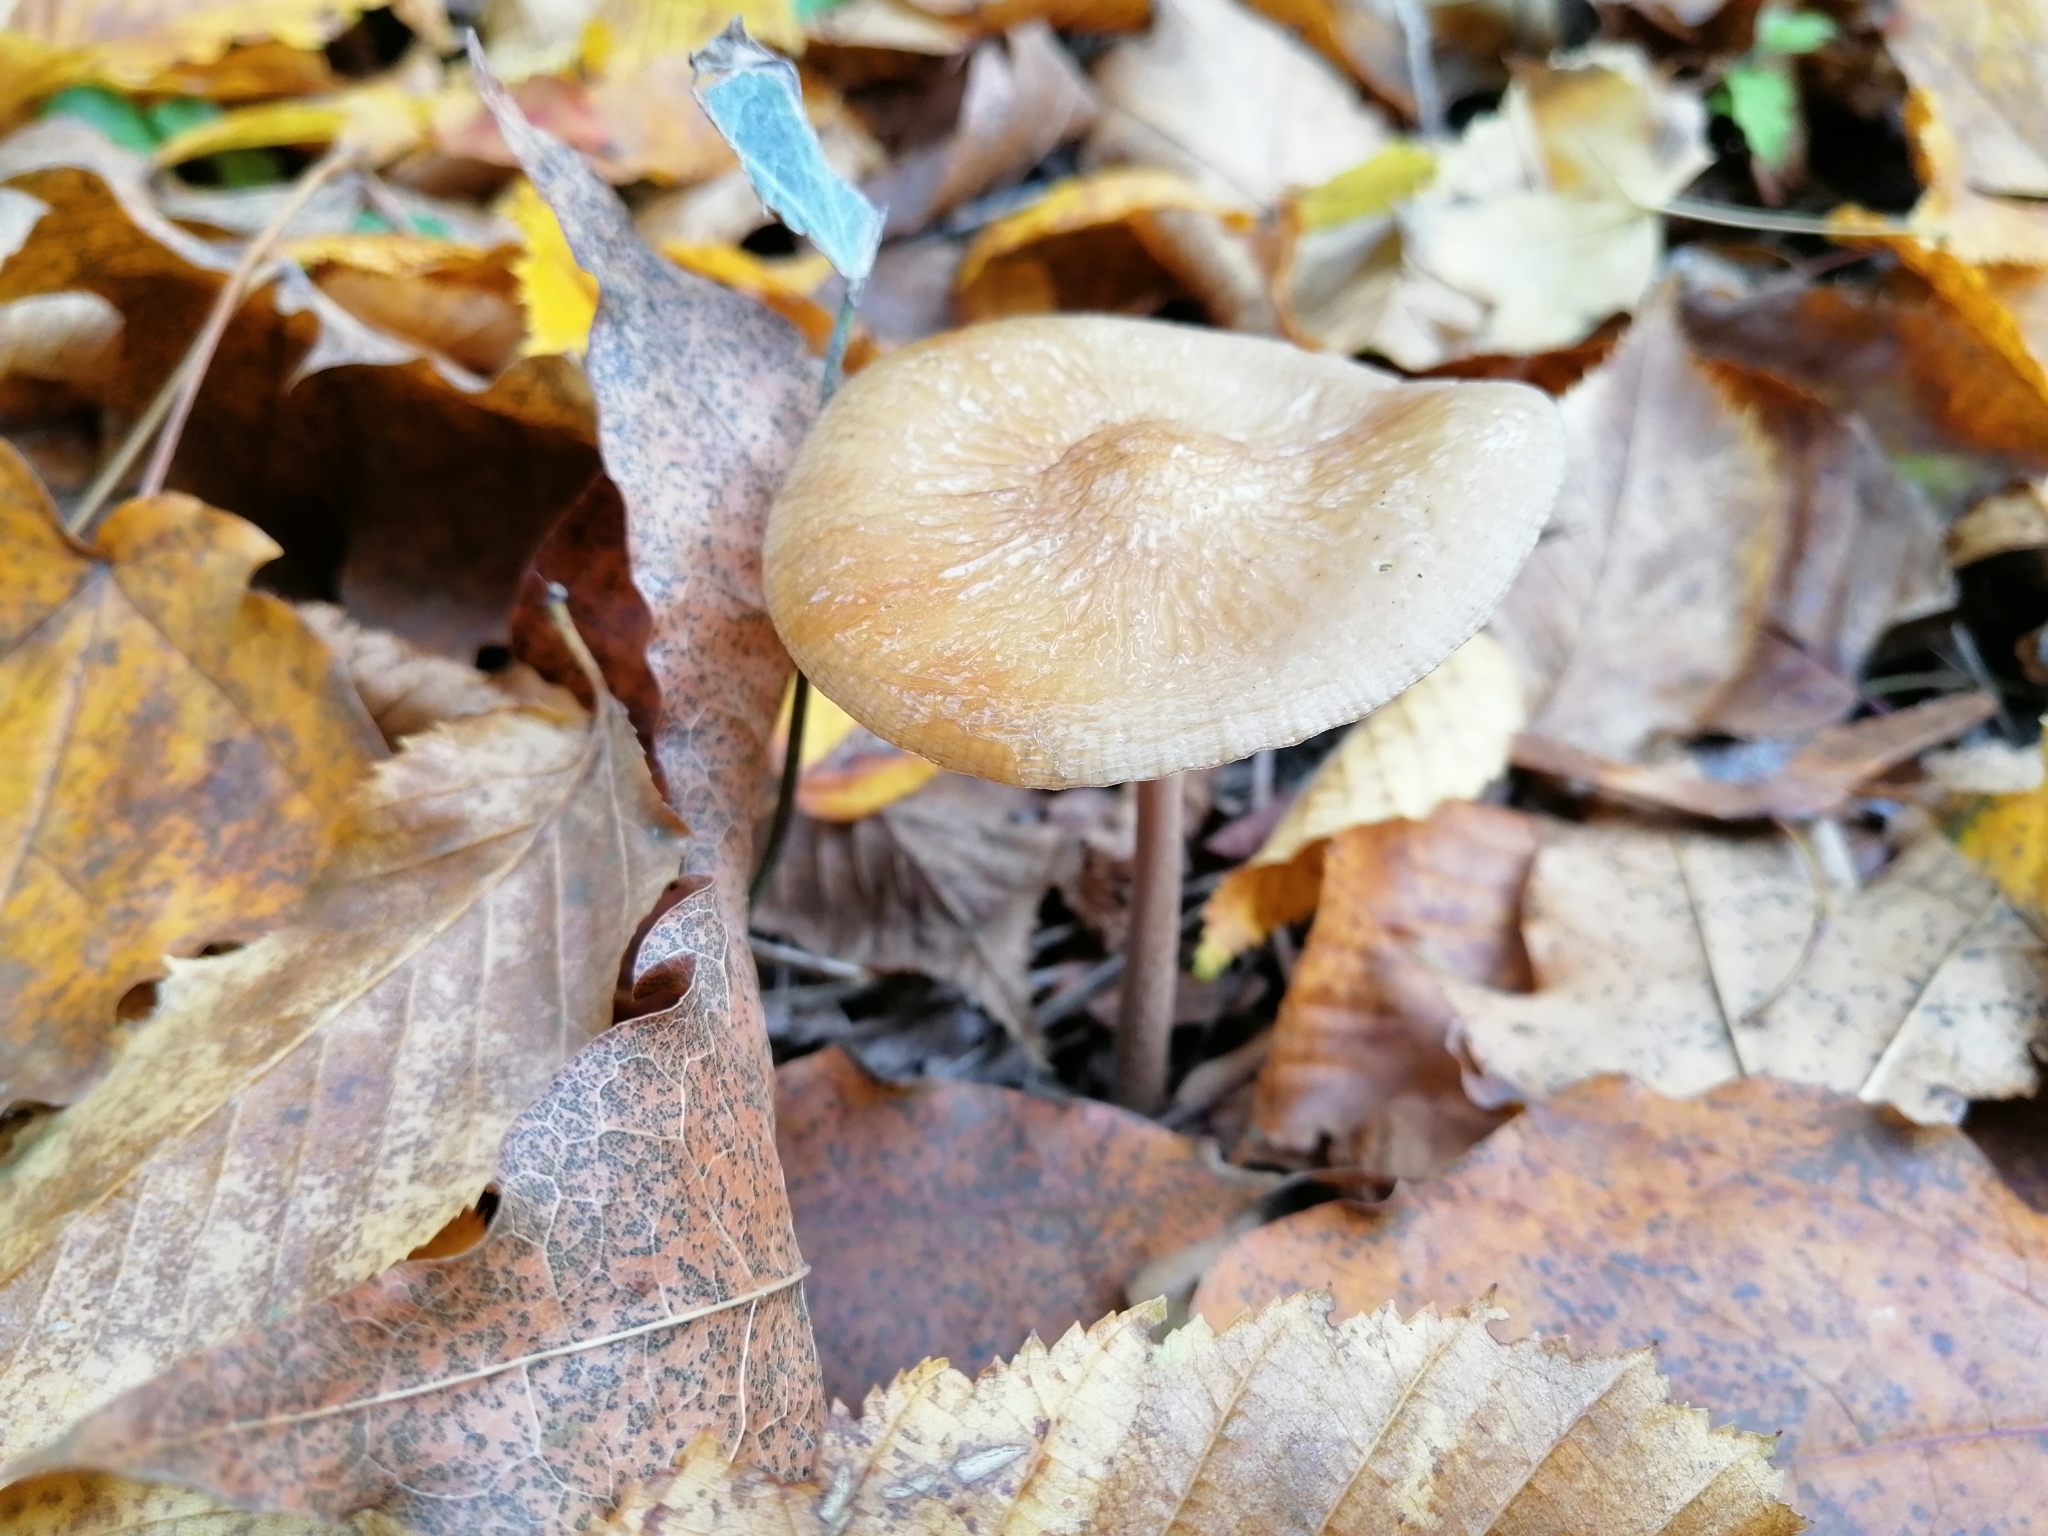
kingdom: Fungi
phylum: Basidiomycota
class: Agaricomycetes
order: Agaricales
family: Physalacriaceae
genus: Hymenopellis
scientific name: Hymenopellis radicata
